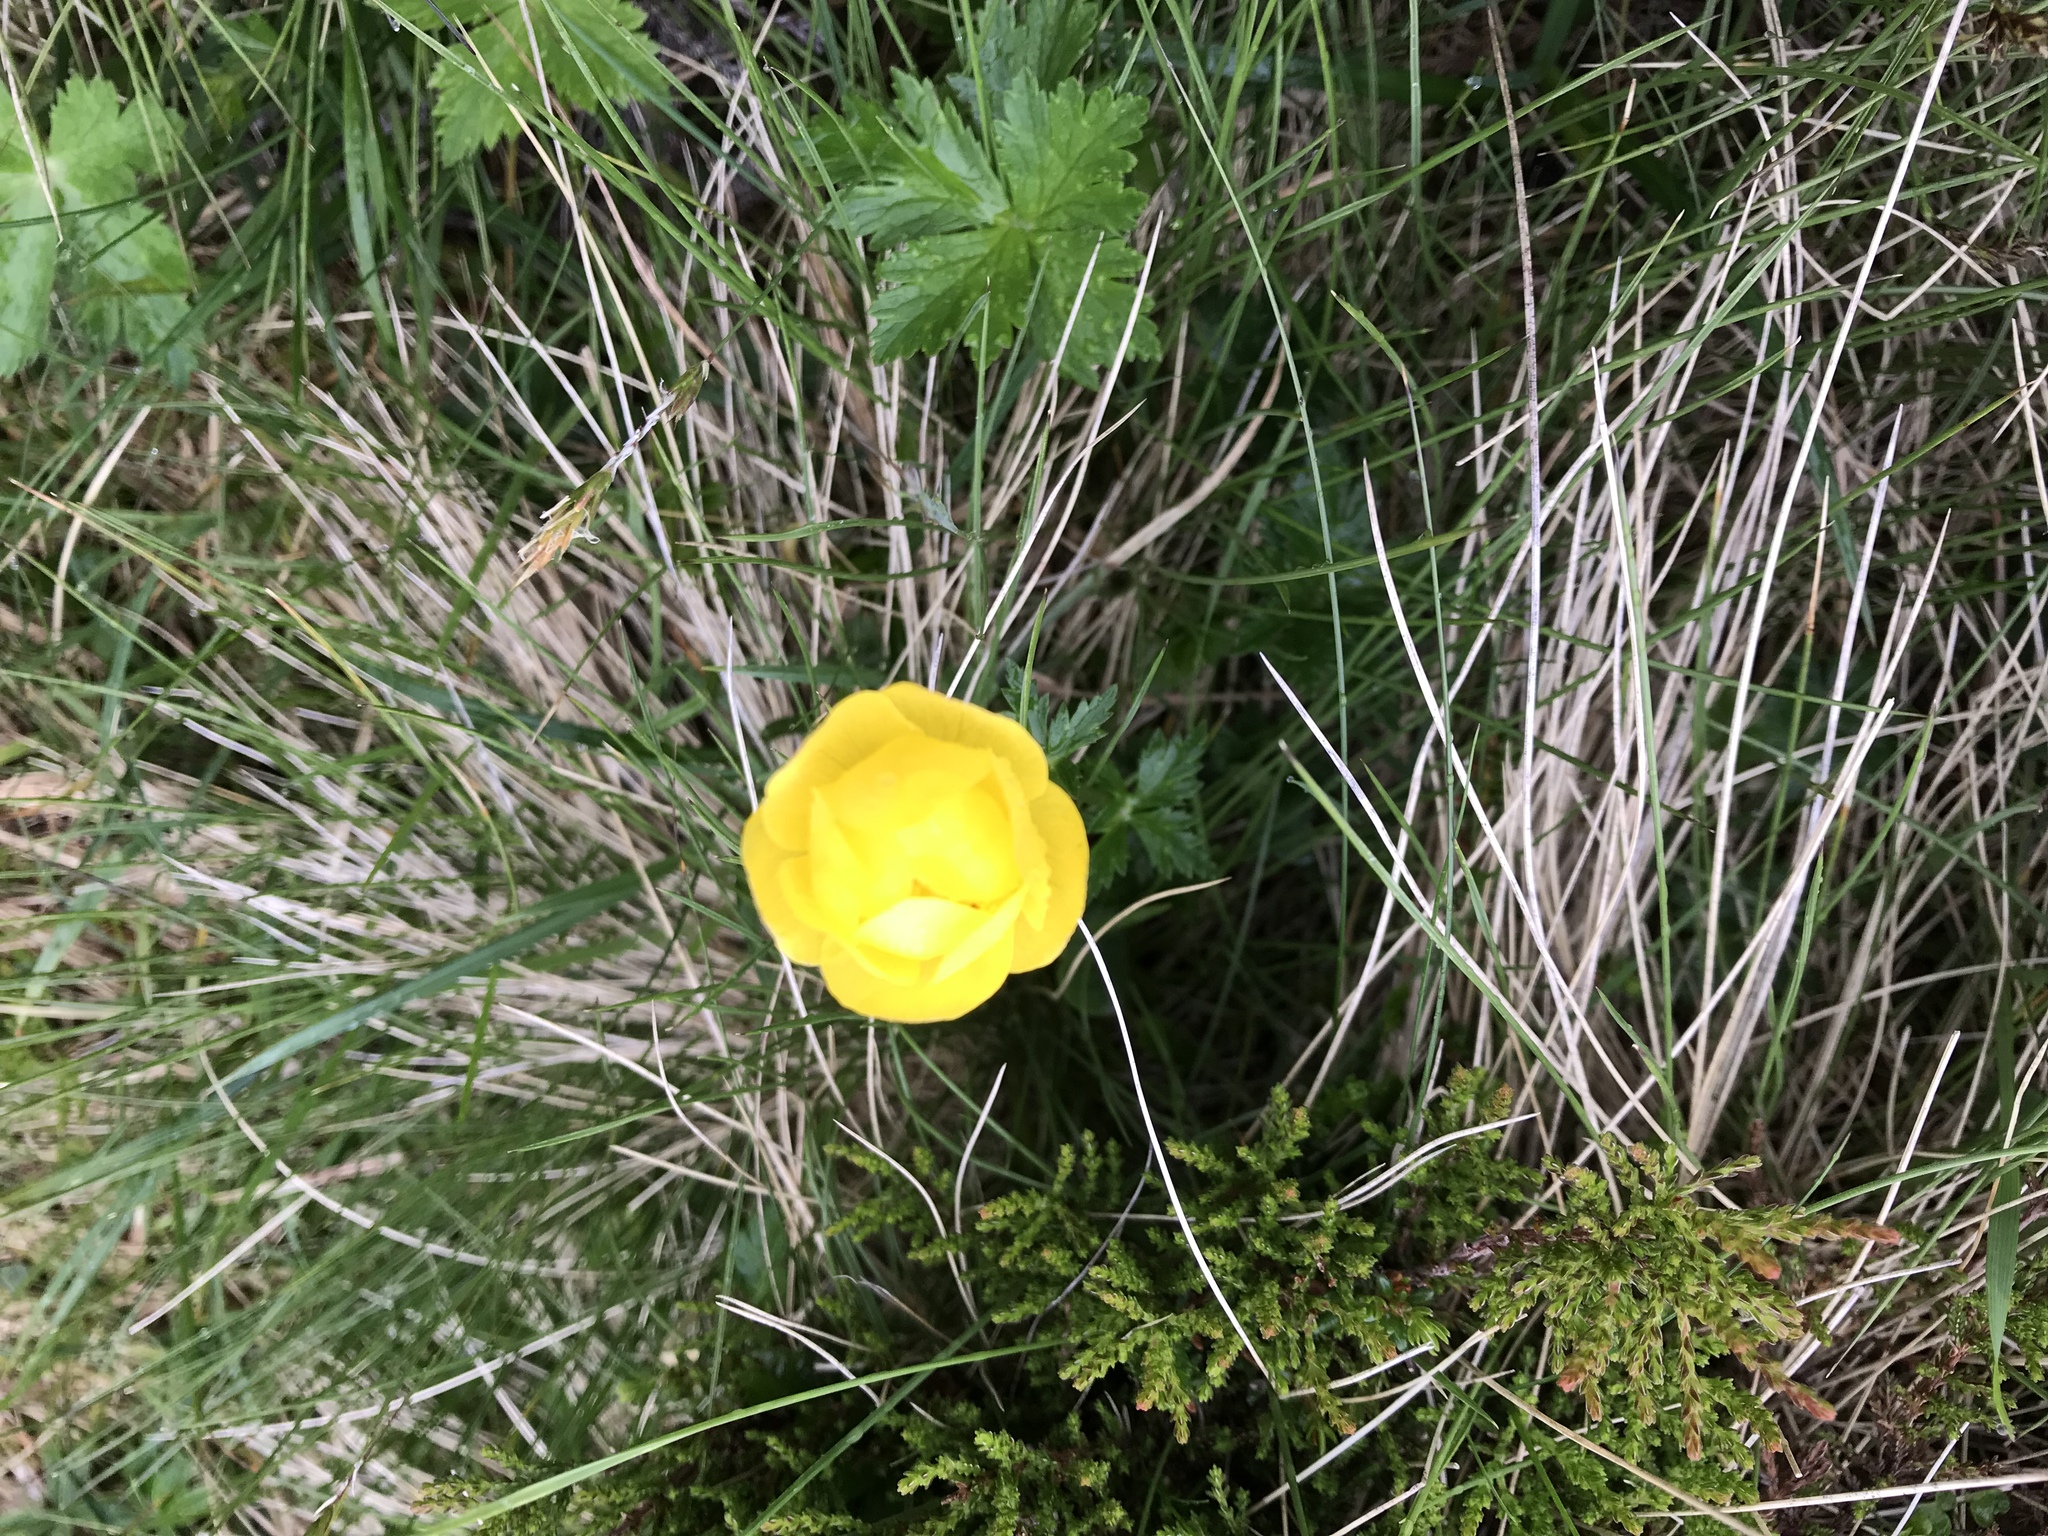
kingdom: Plantae
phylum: Tracheophyta
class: Magnoliopsida
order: Ranunculales
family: Ranunculaceae
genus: Trollius
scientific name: Trollius europaeus
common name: European globeflower
